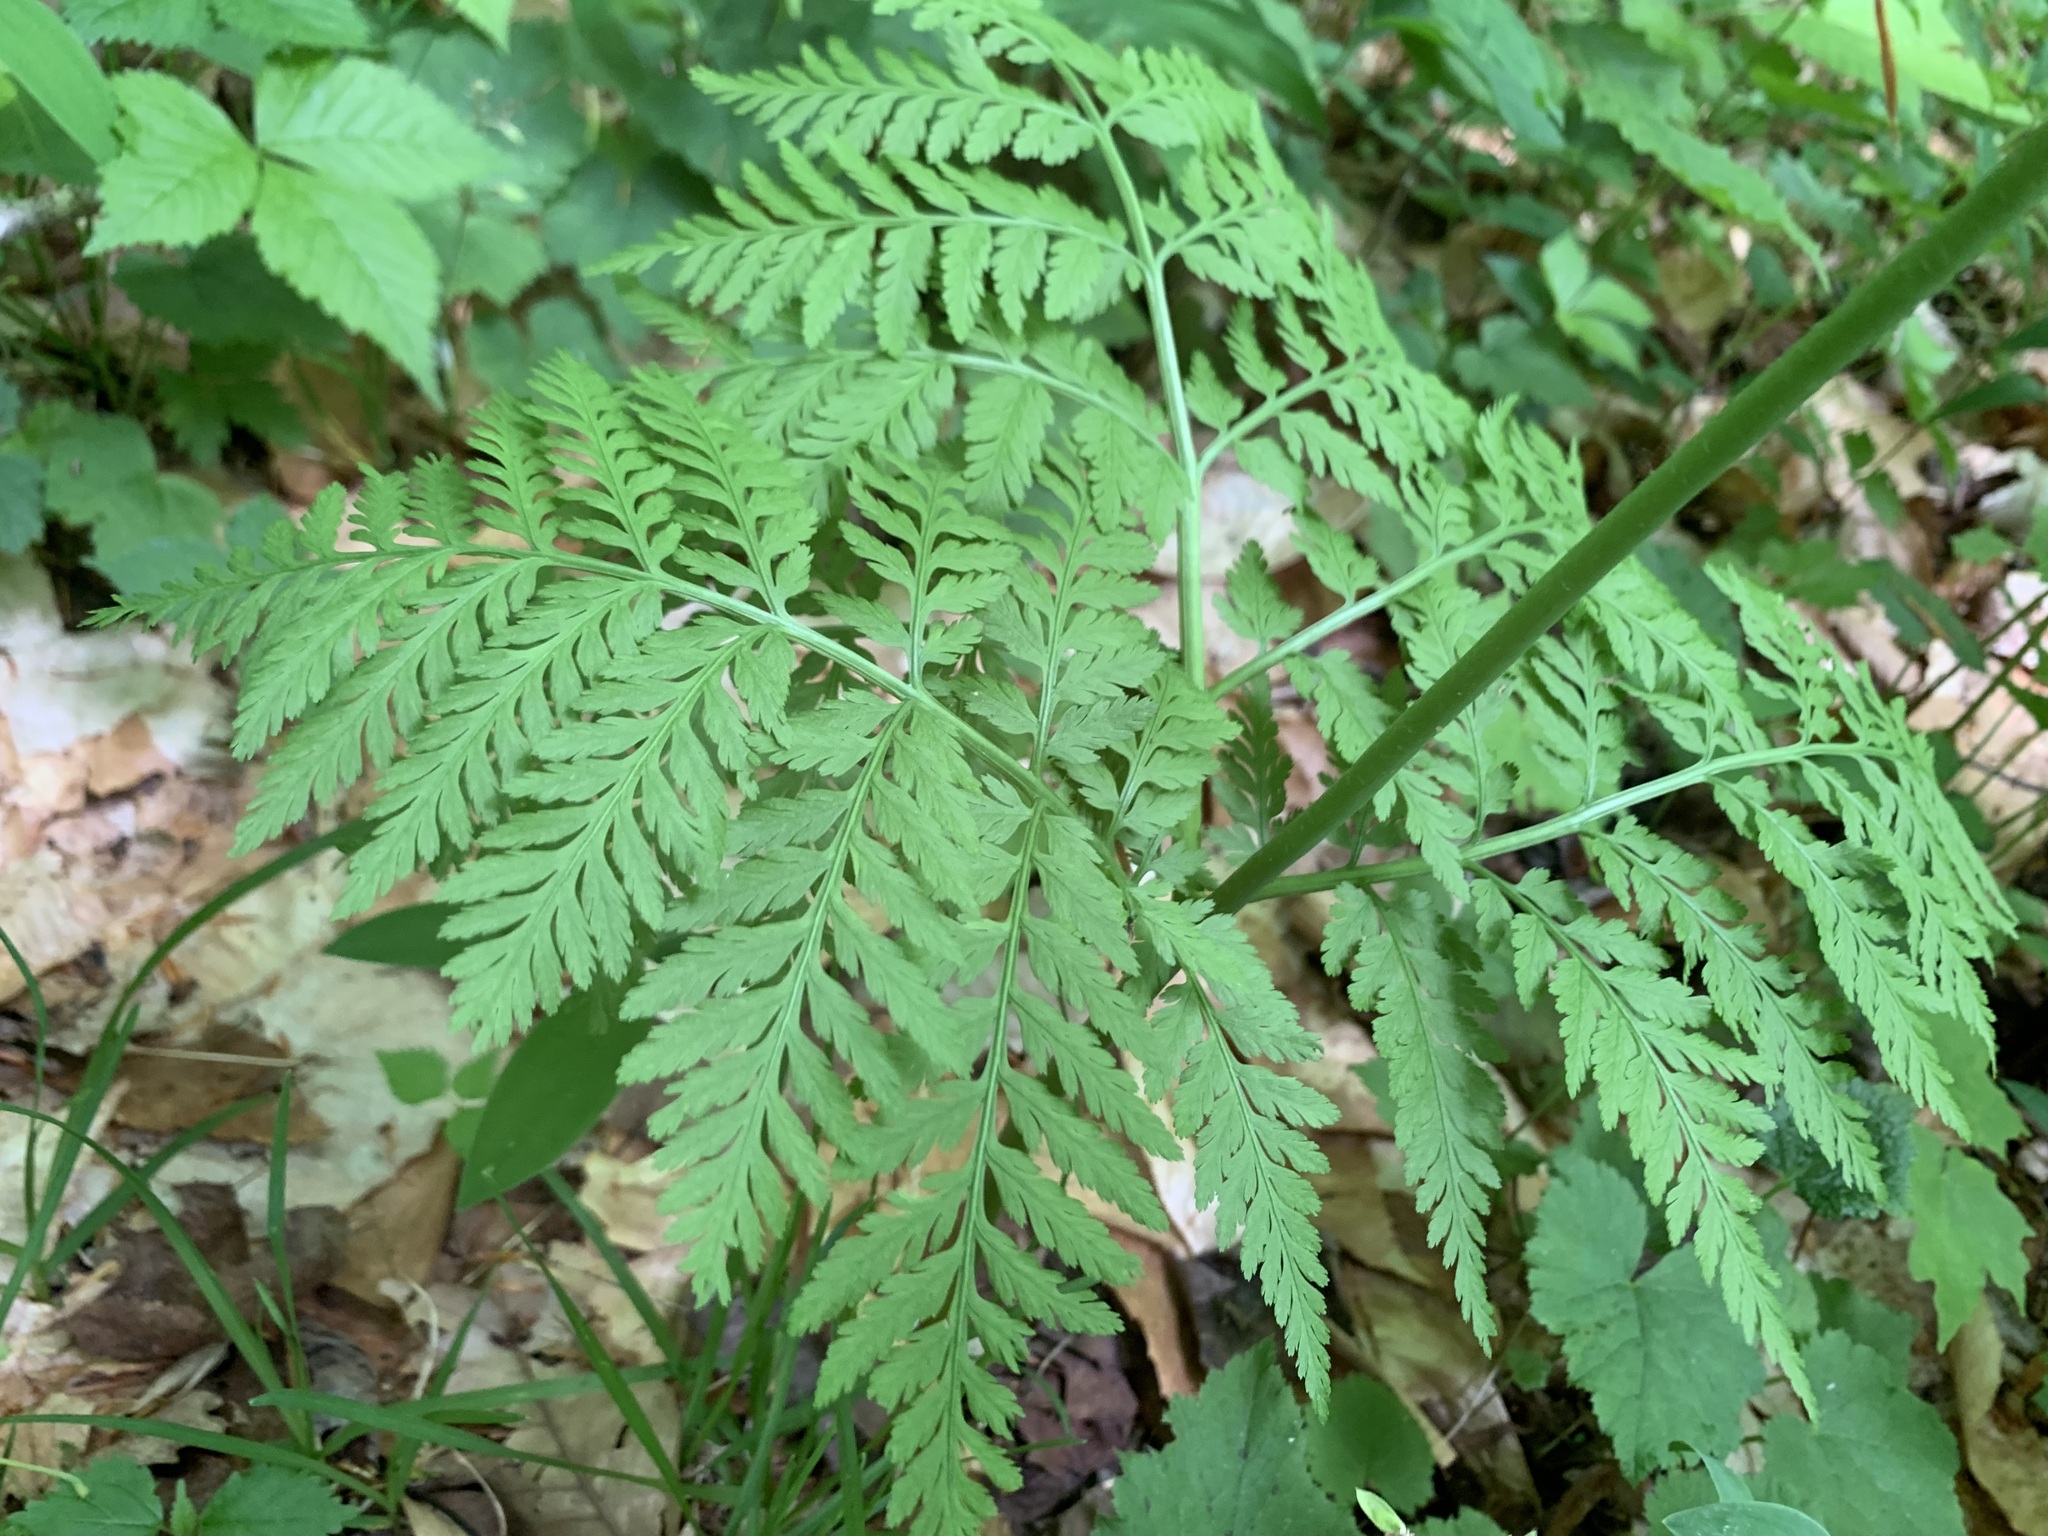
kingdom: Plantae
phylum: Tracheophyta
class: Polypodiopsida
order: Ophioglossales
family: Ophioglossaceae
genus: Botrypus
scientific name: Botrypus virginianus
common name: Common grapefern
